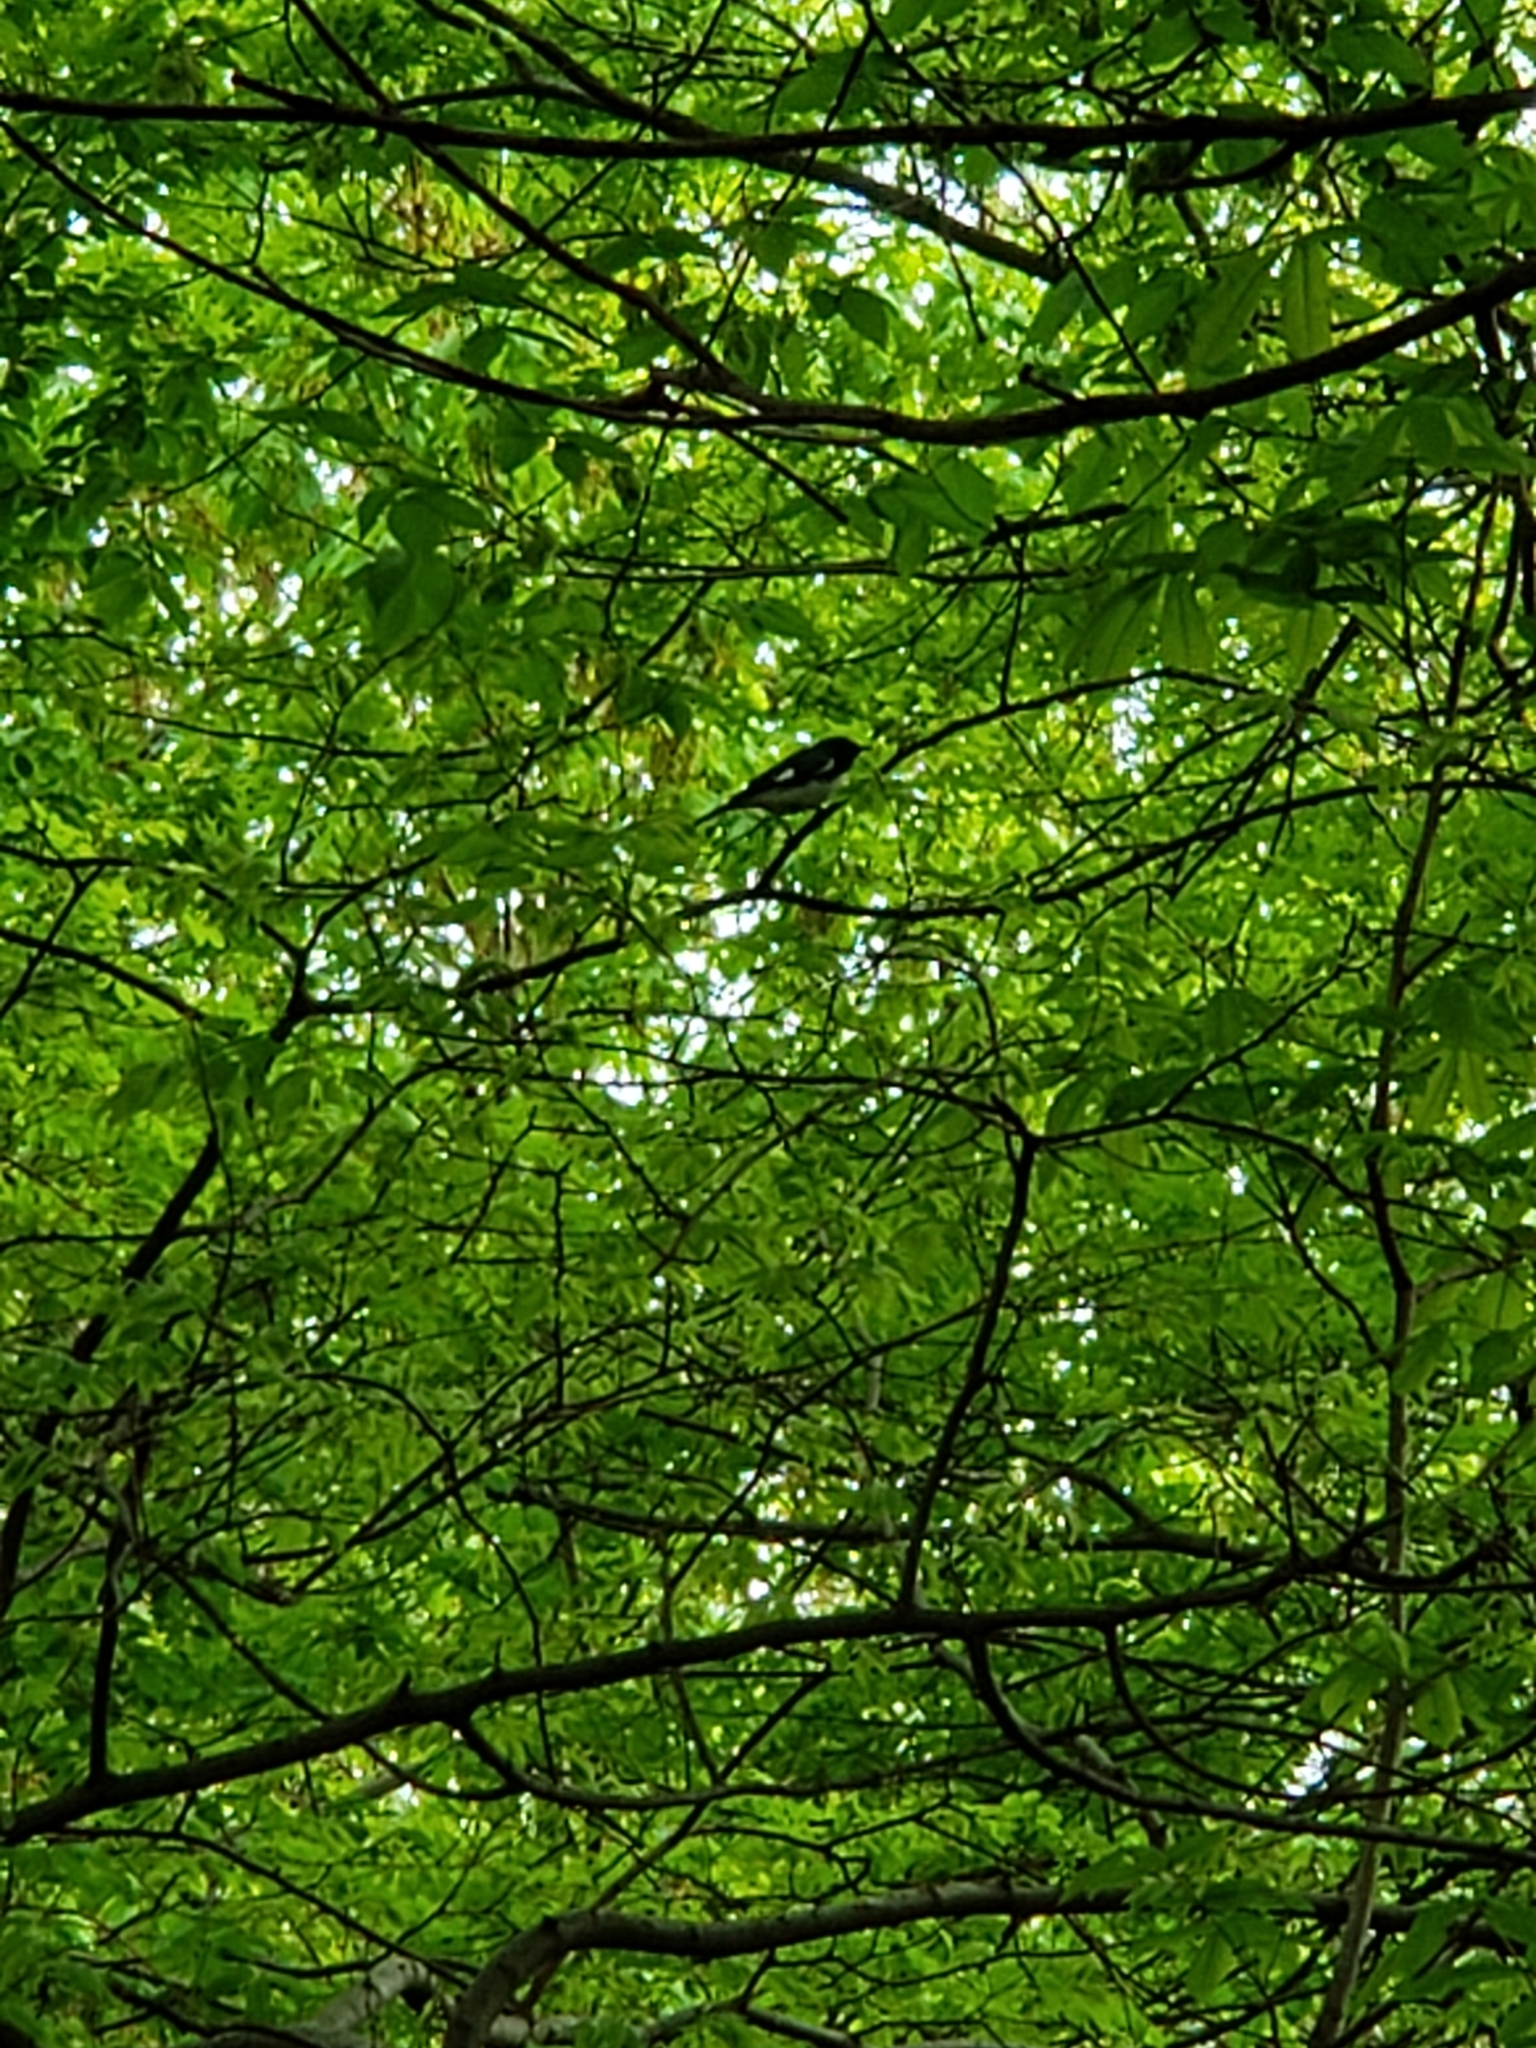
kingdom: Animalia
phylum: Chordata
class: Aves
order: Passeriformes
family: Parulidae
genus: Setophaga
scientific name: Setophaga caerulescens
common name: Black-throated blue warbler
